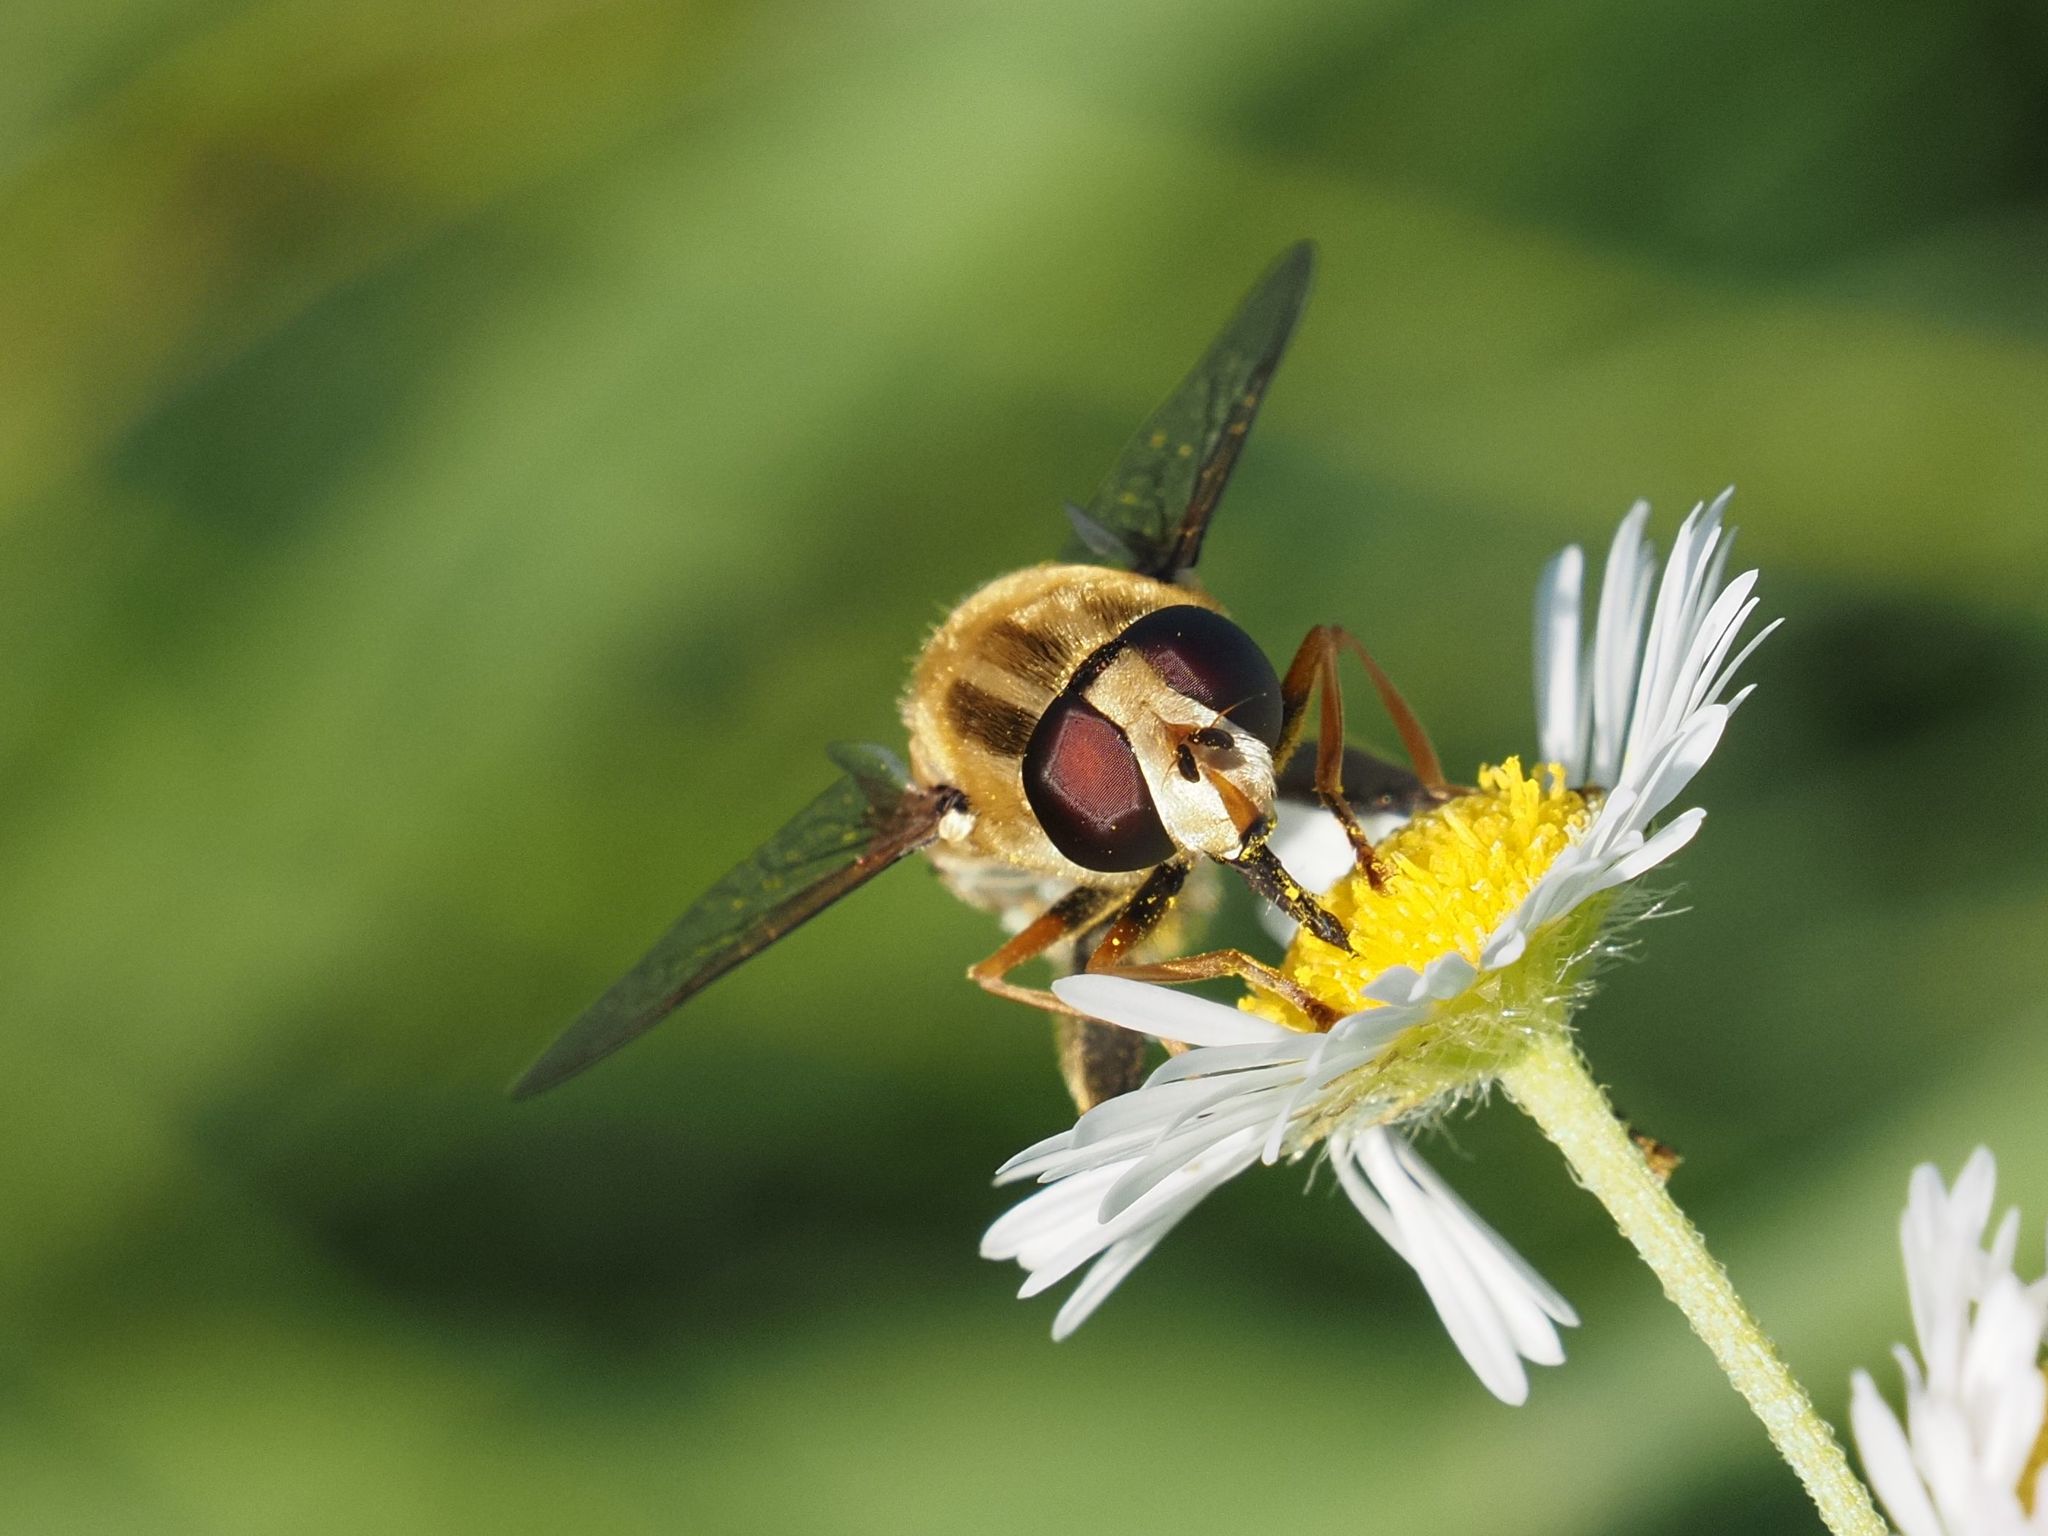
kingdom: Animalia
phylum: Arthropoda
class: Insecta
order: Diptera
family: Syrphidae
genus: Helophilus
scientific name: Helophilus trivittatus
